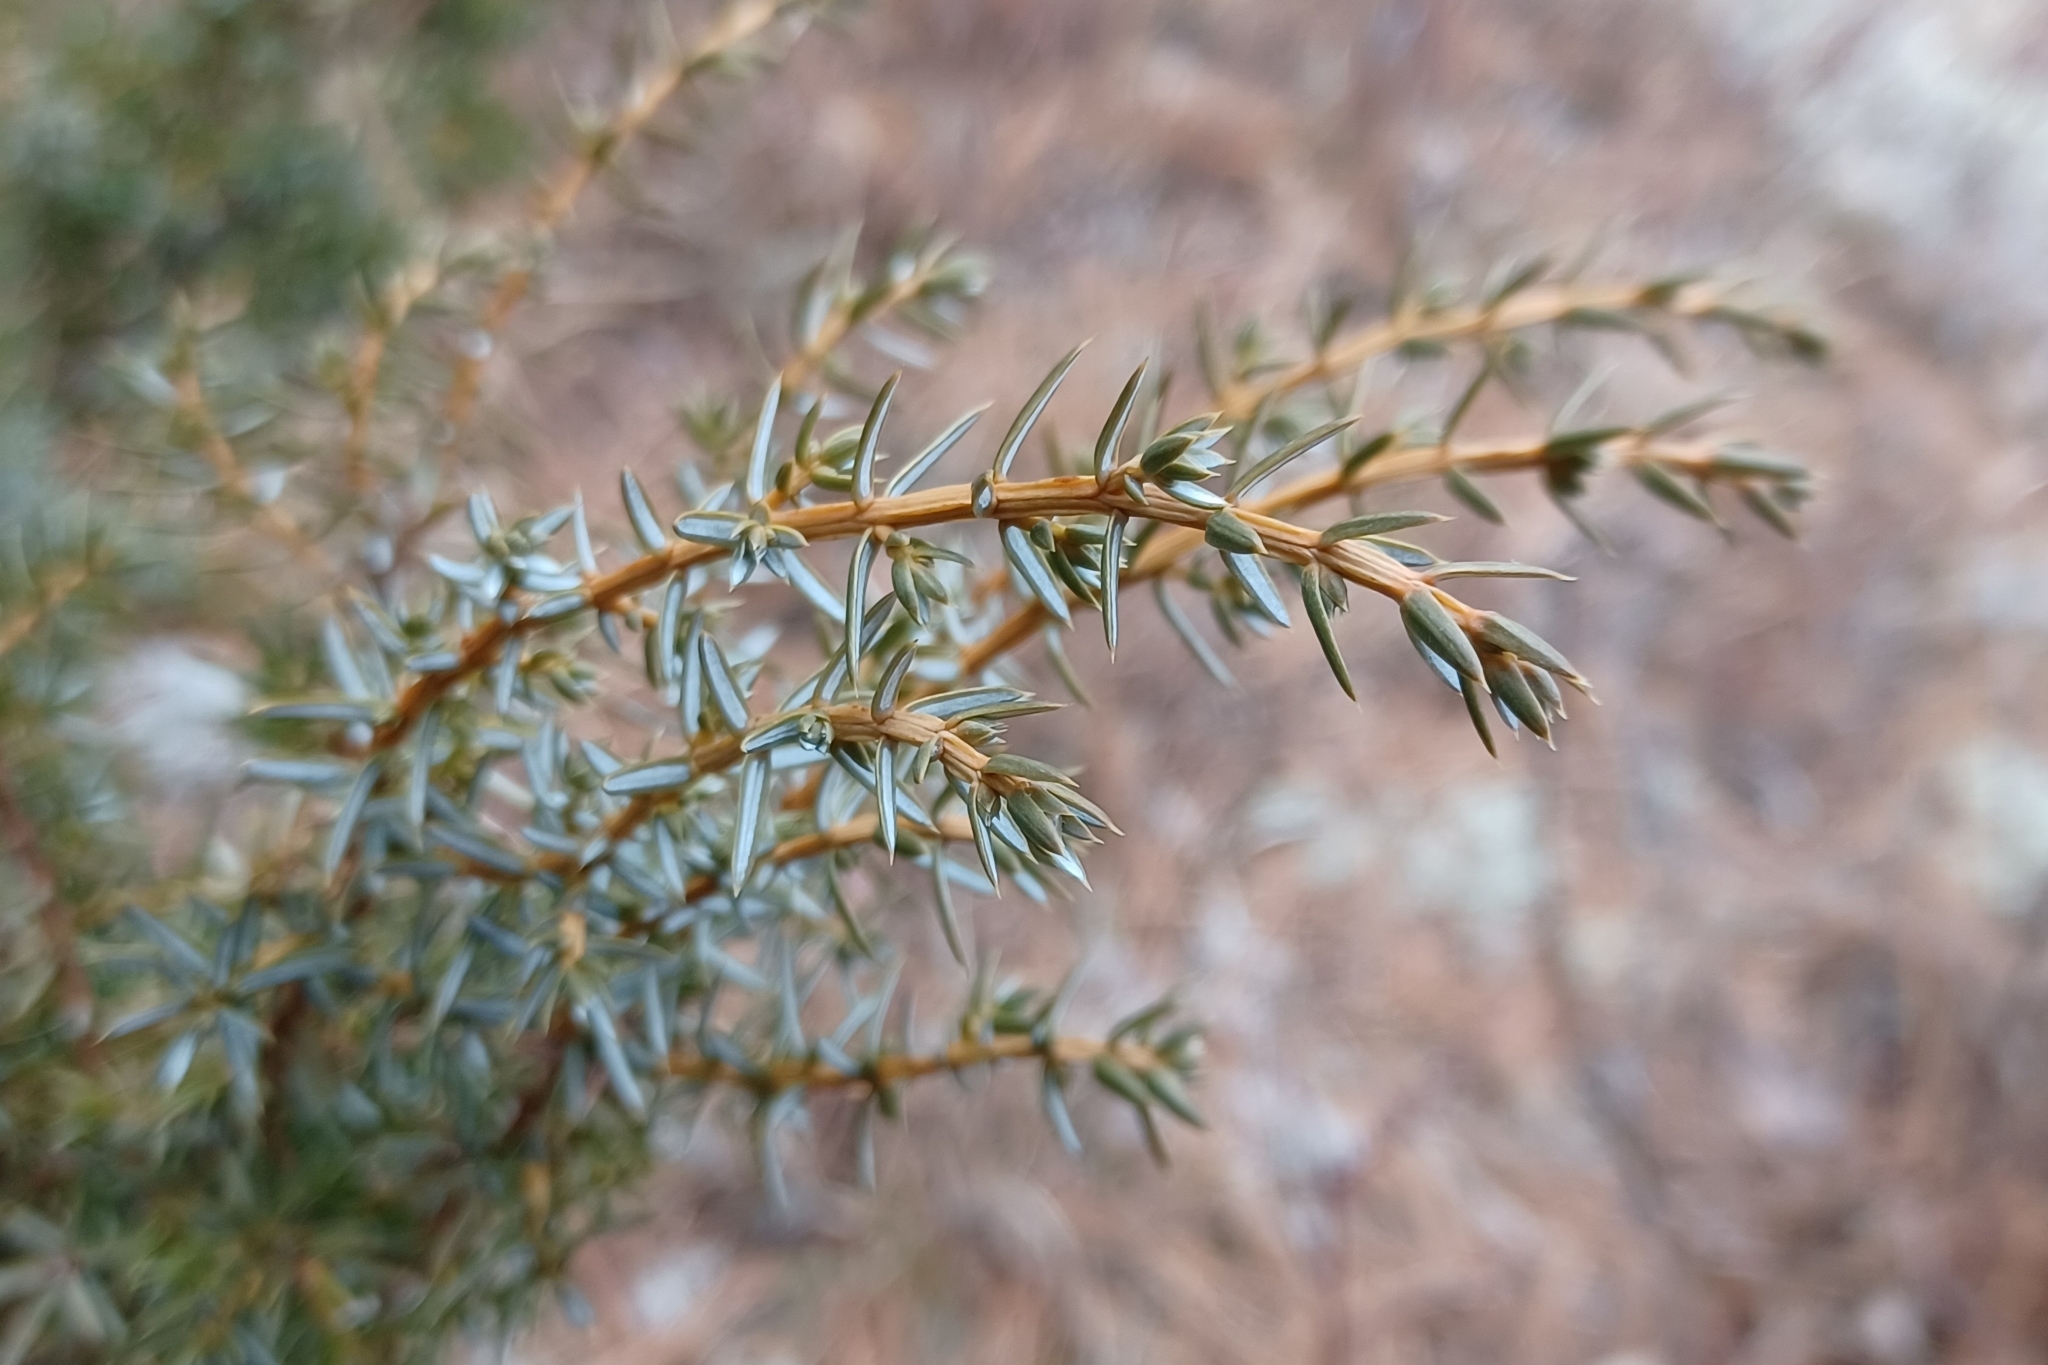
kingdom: Plantae
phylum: Tracheophyta
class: Pinopsida
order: Pinales
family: Cupressaceae
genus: Juniperus
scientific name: Juniperus communis
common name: Common juniper
